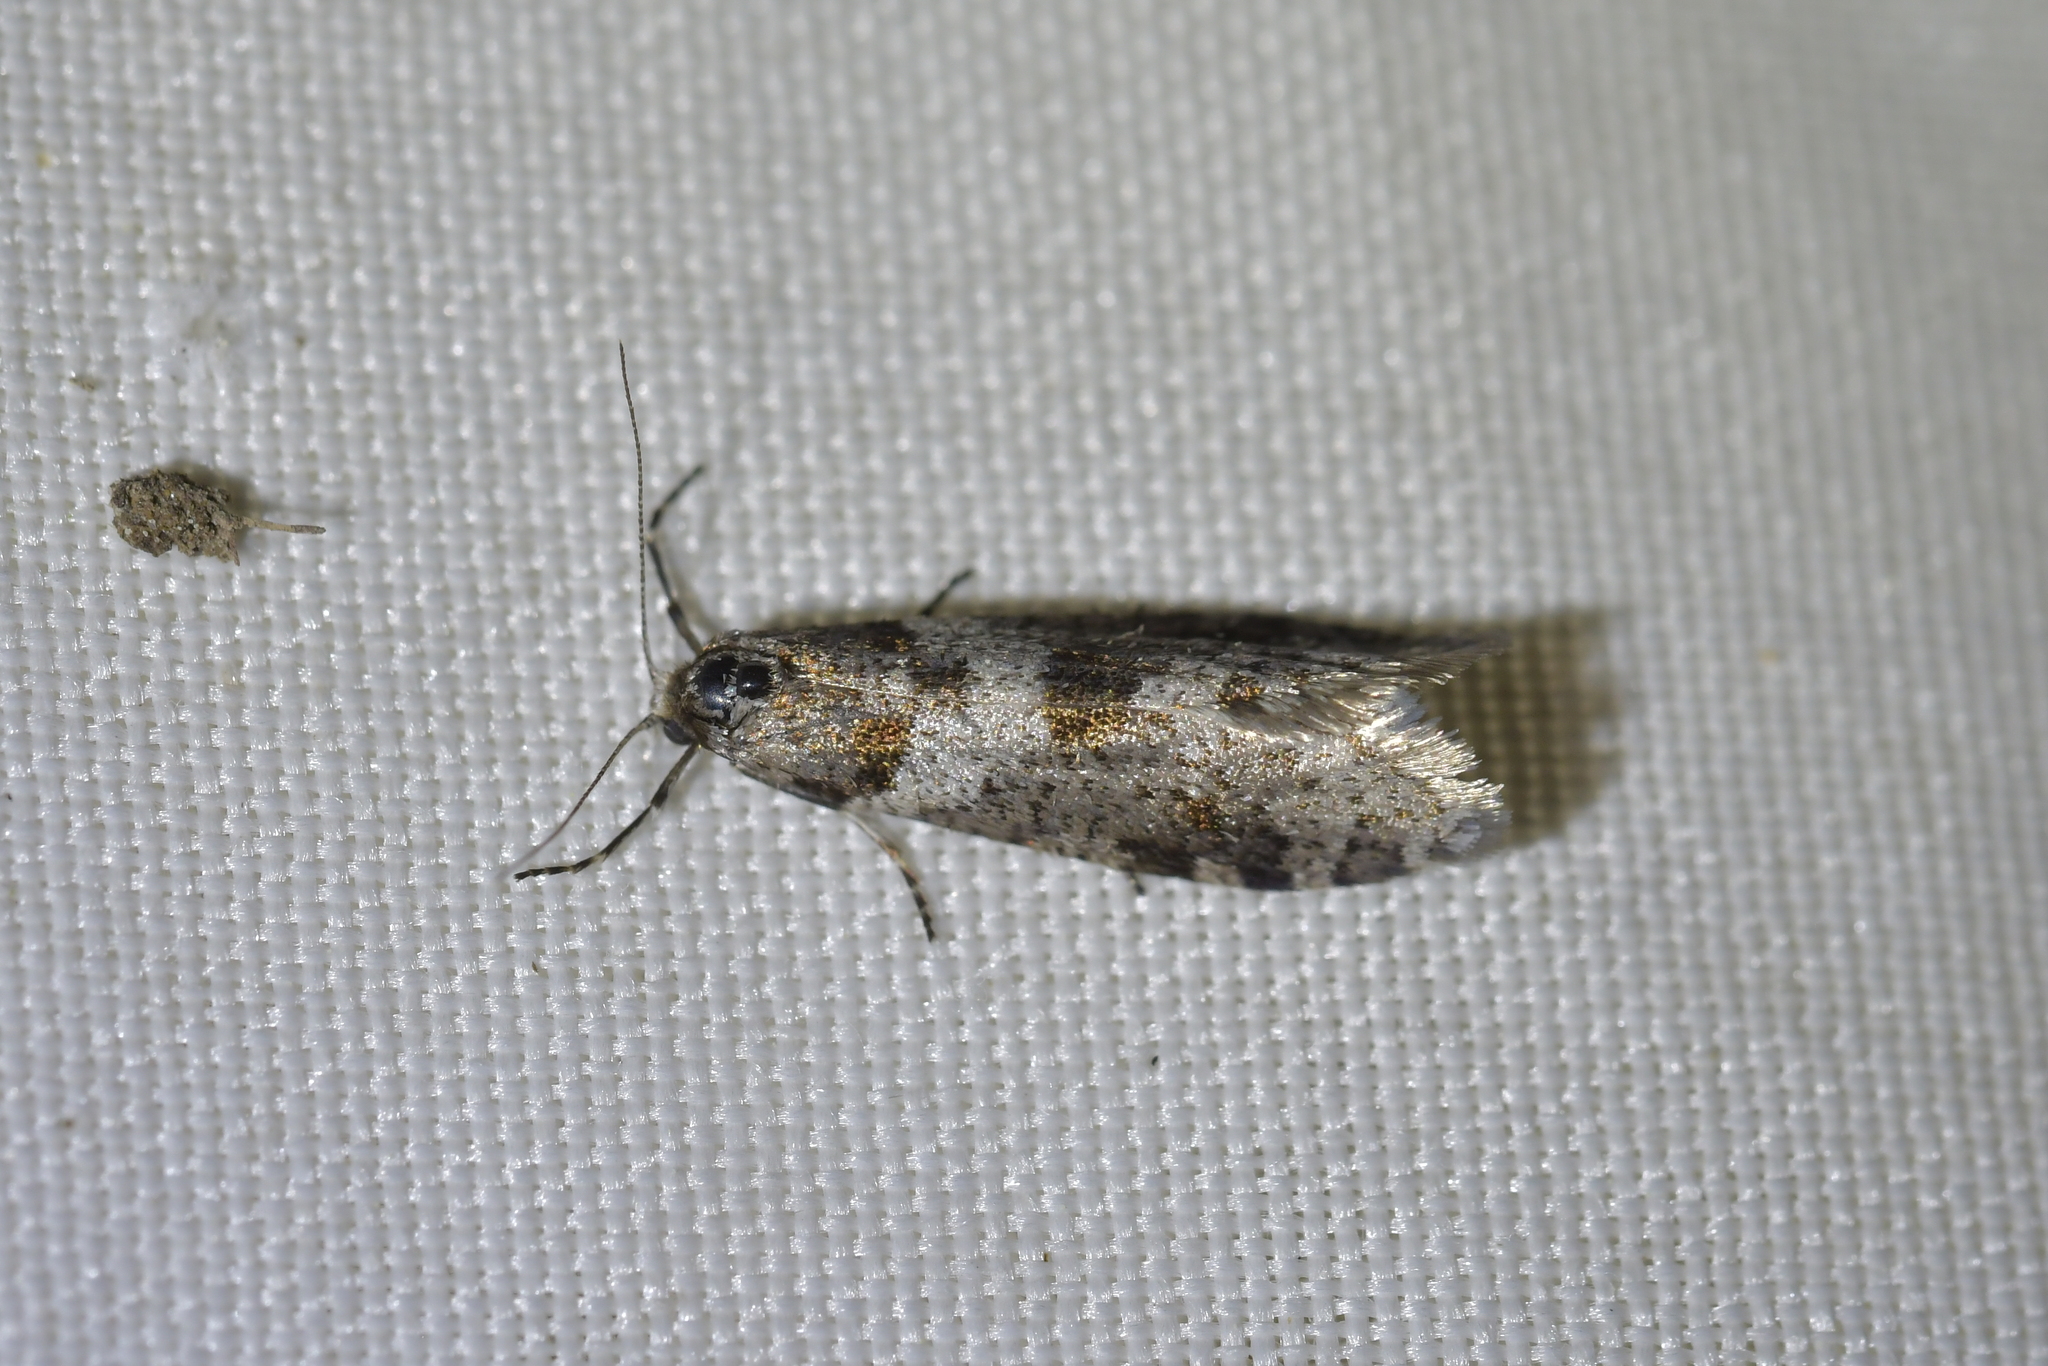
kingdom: Animalia
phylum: Arthropoda
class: Insecta
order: Lepidoptera
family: Psychidae
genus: Lepidoscia
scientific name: Lepidoscia heliochares
